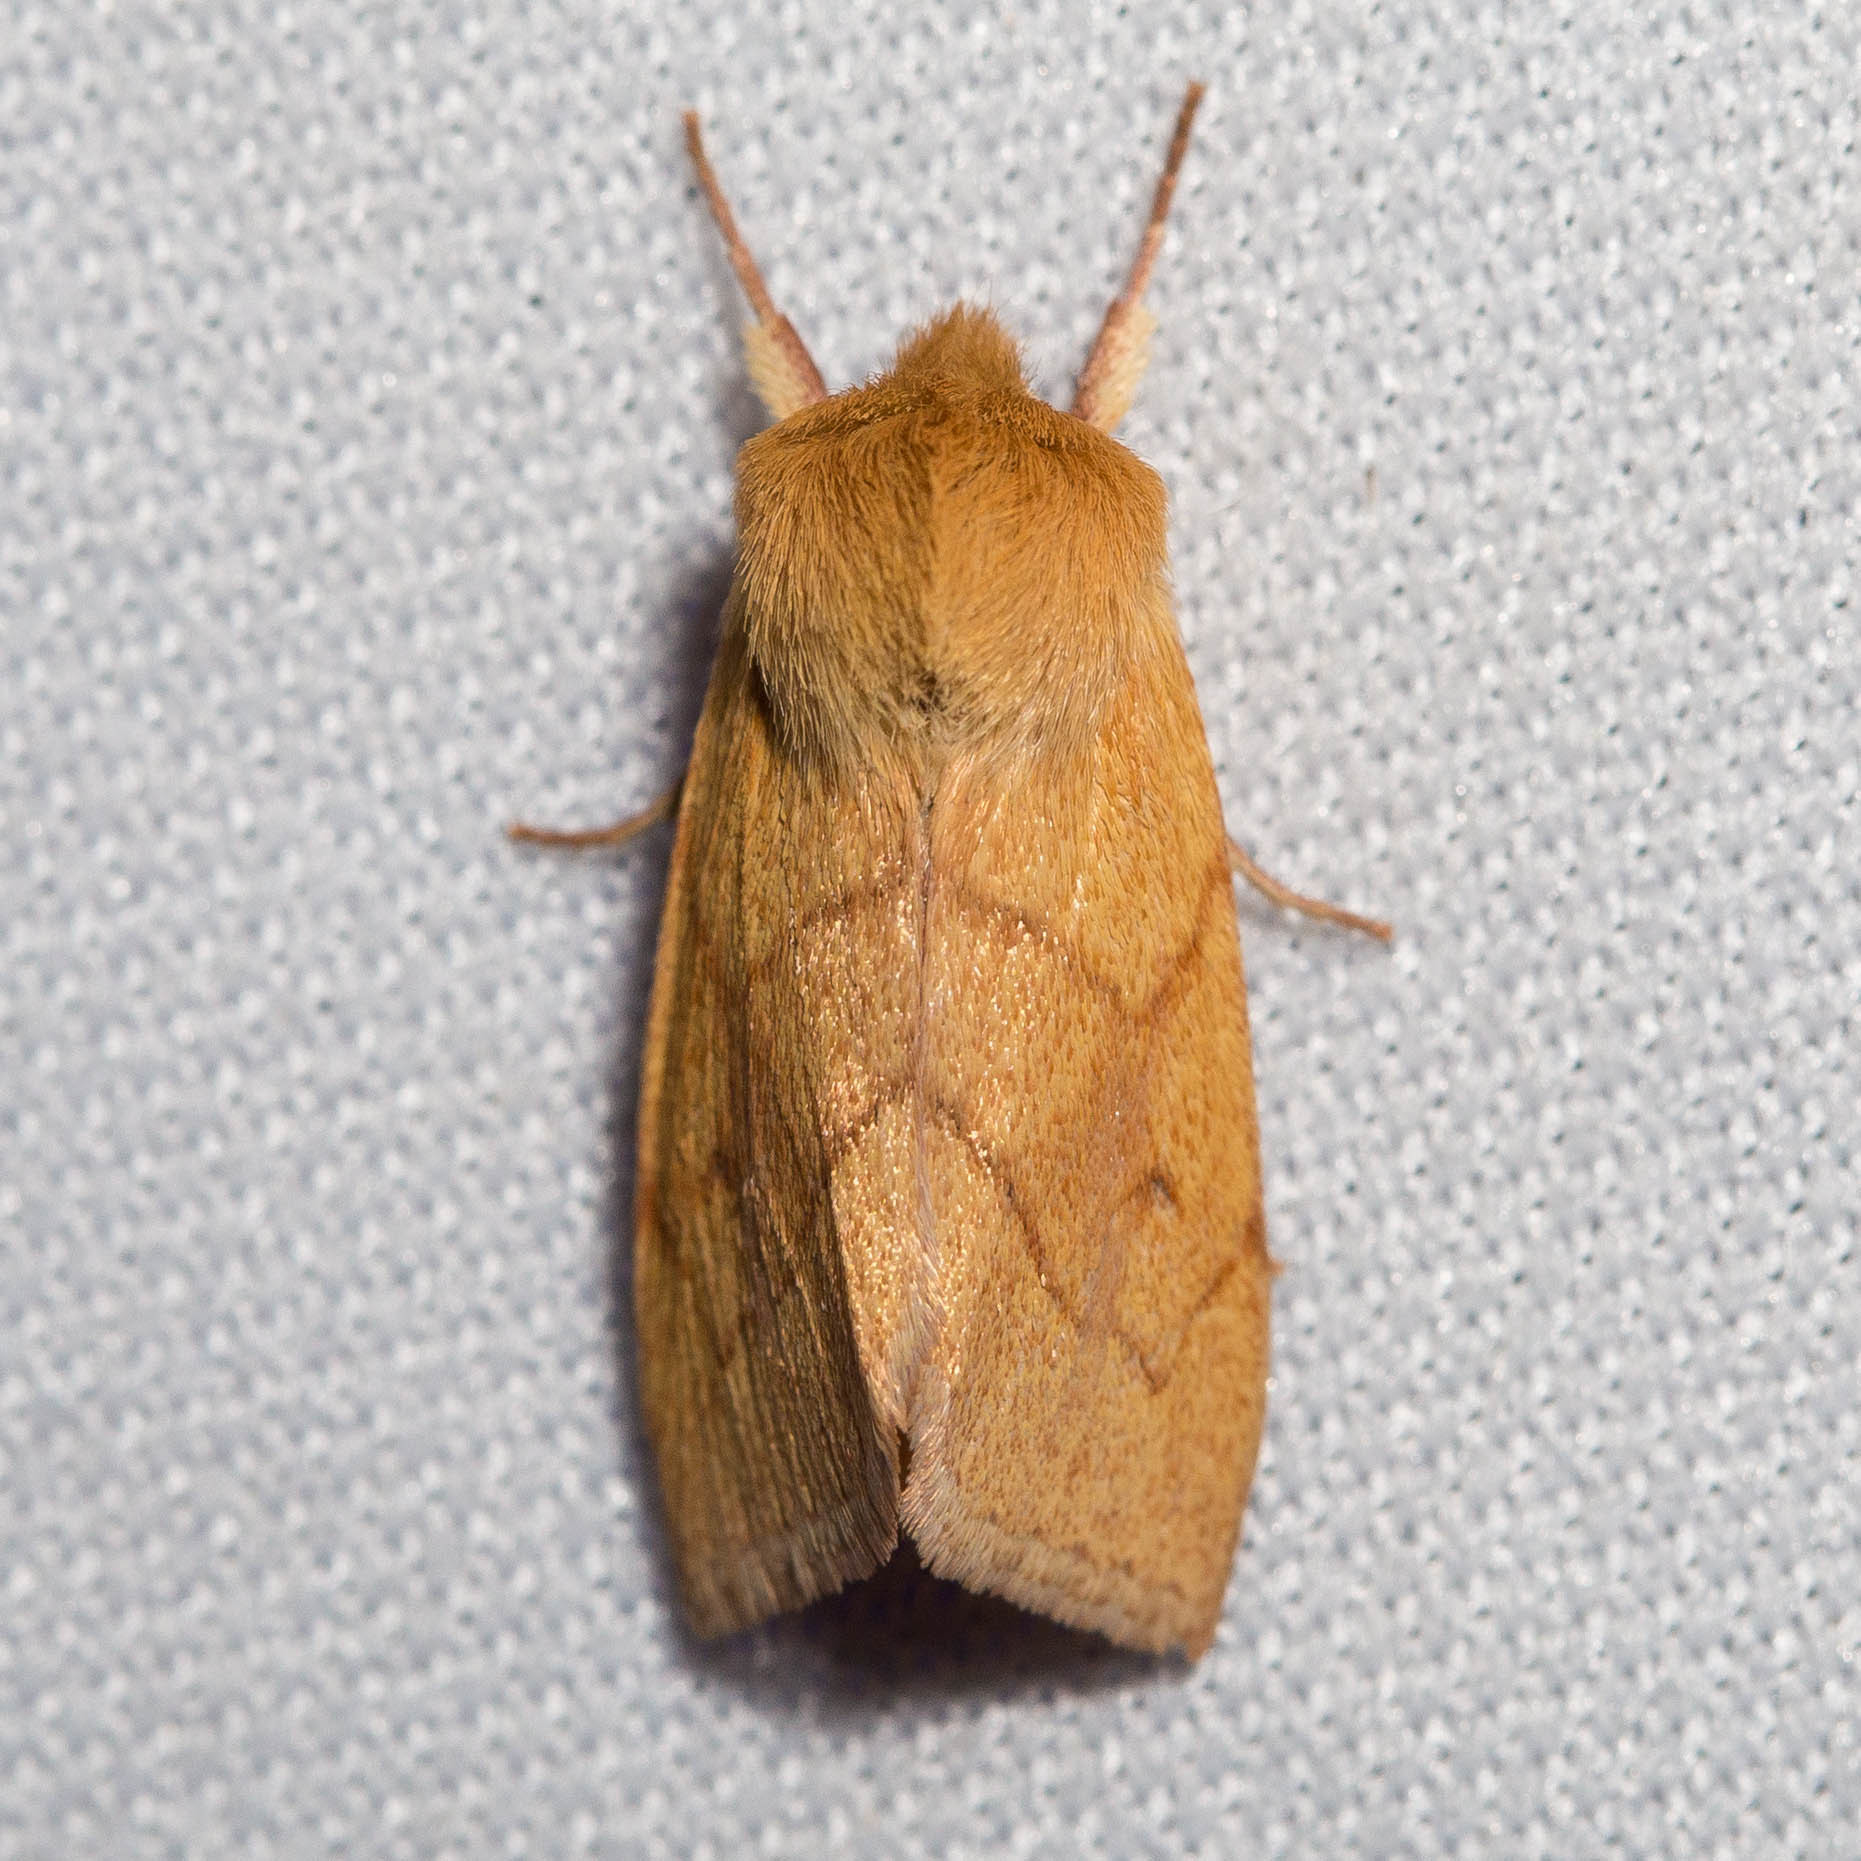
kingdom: Animalia
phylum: Arthropoda
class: Insecta
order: Lepidoptera
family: Noctuidae
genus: Zosteropoda
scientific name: Zosteropoda hirtipes
